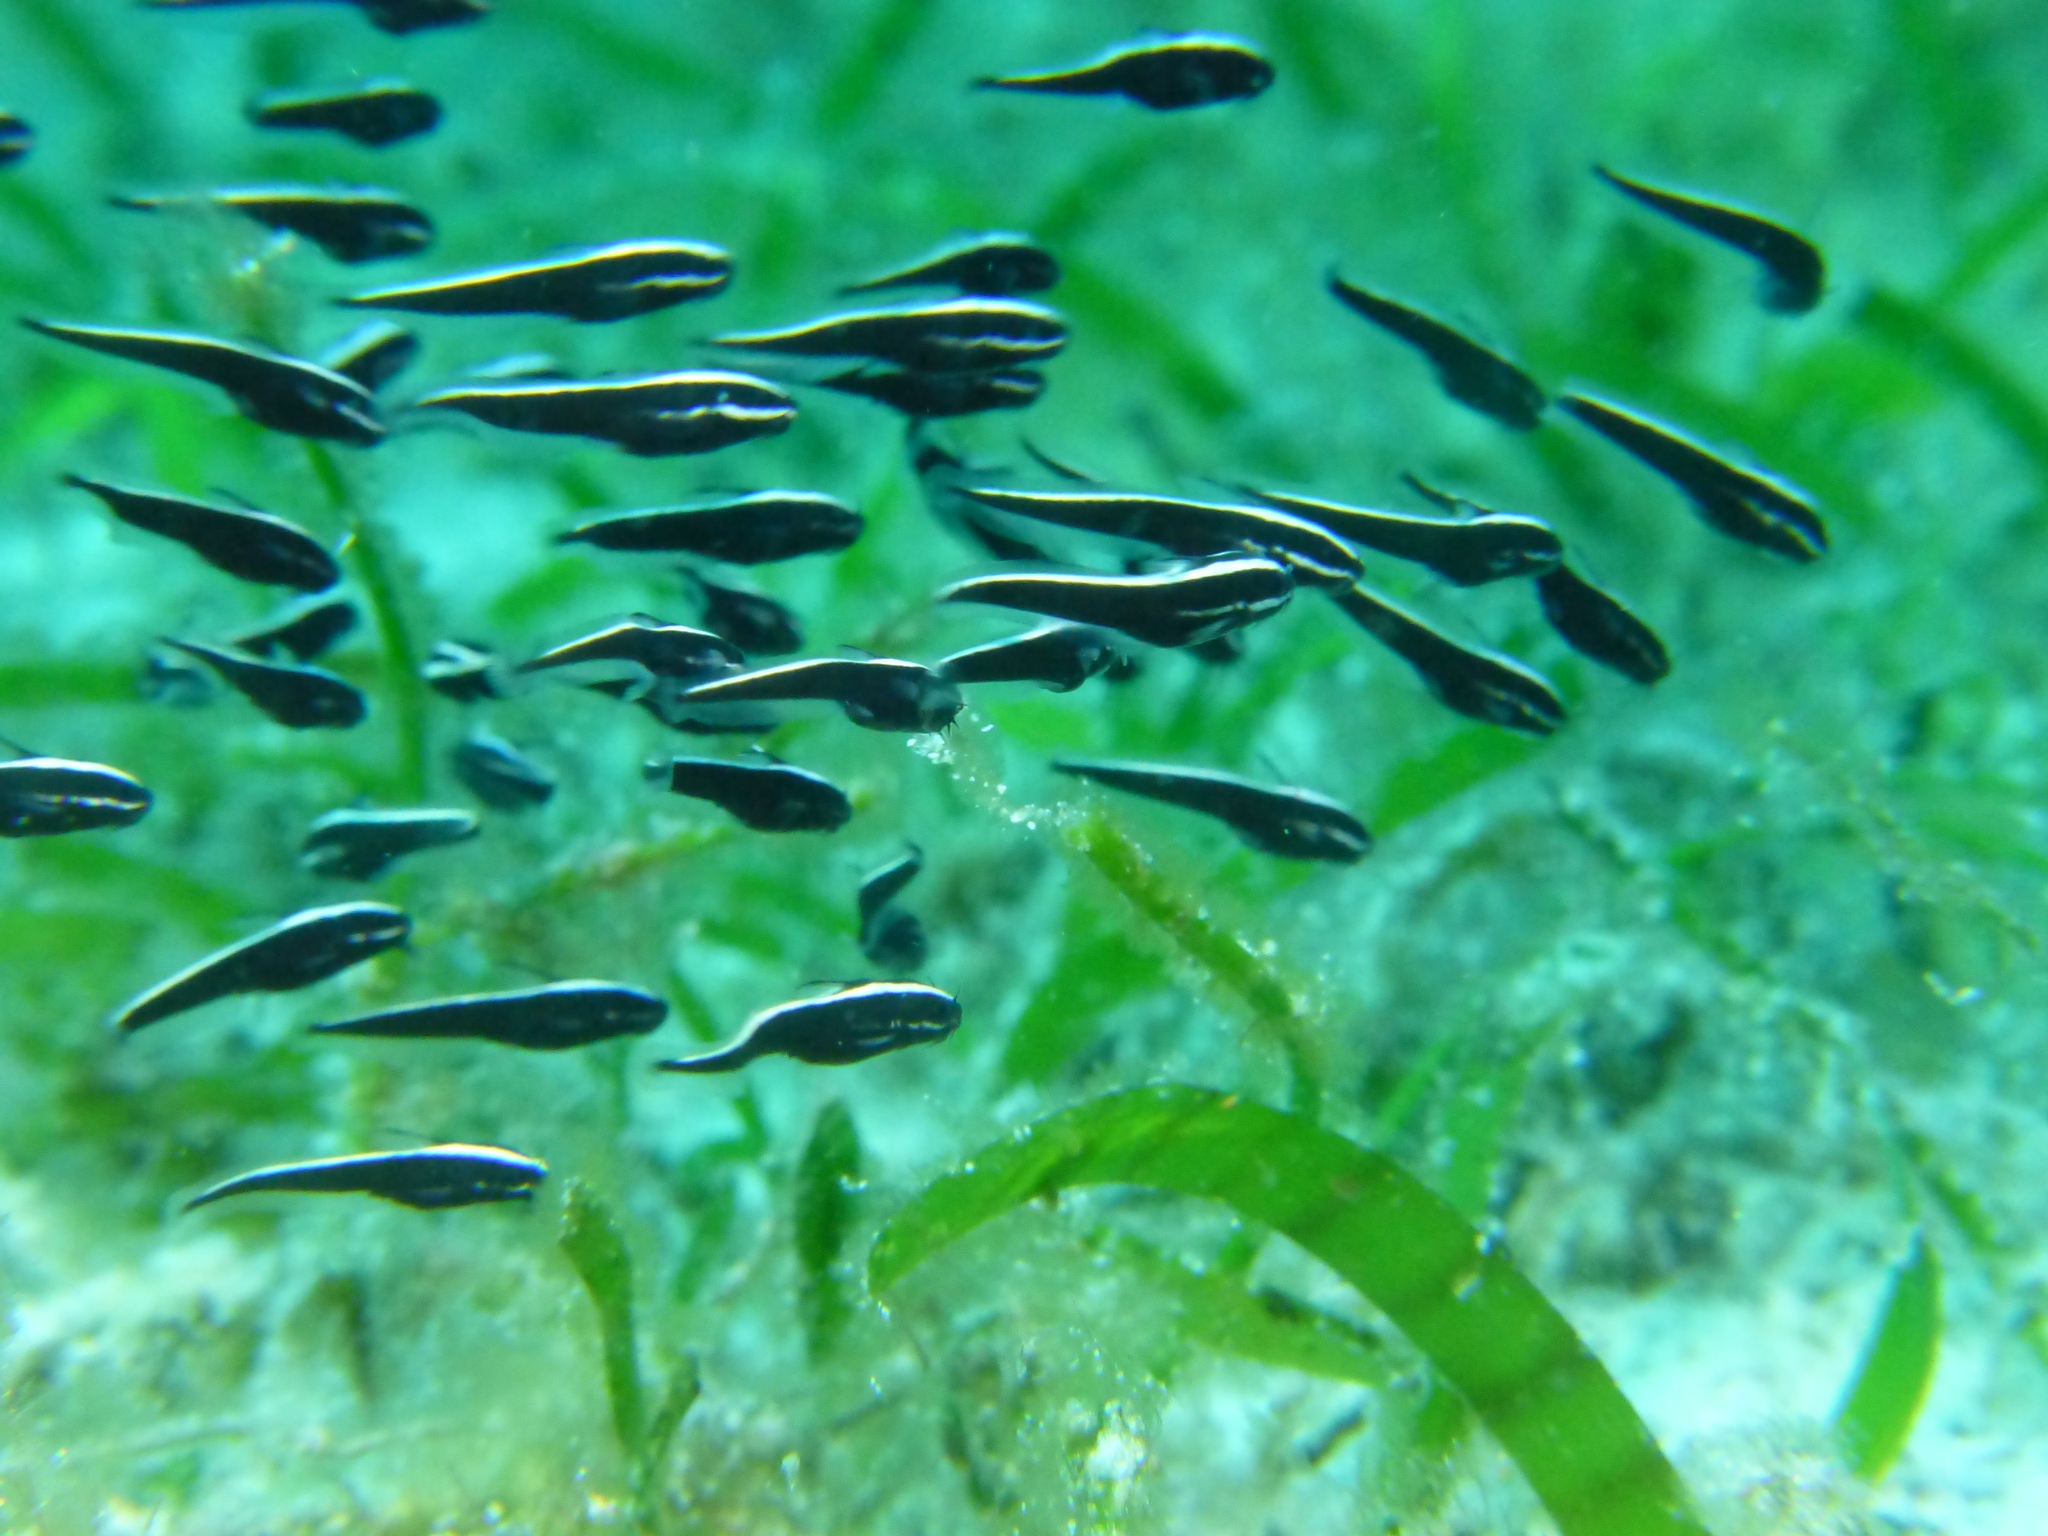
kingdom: Animalia
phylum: Chordata
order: Siluriformes
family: Plotosidae
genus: Plotosus
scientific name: Plotosus lineatus
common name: Striped eel catfish
